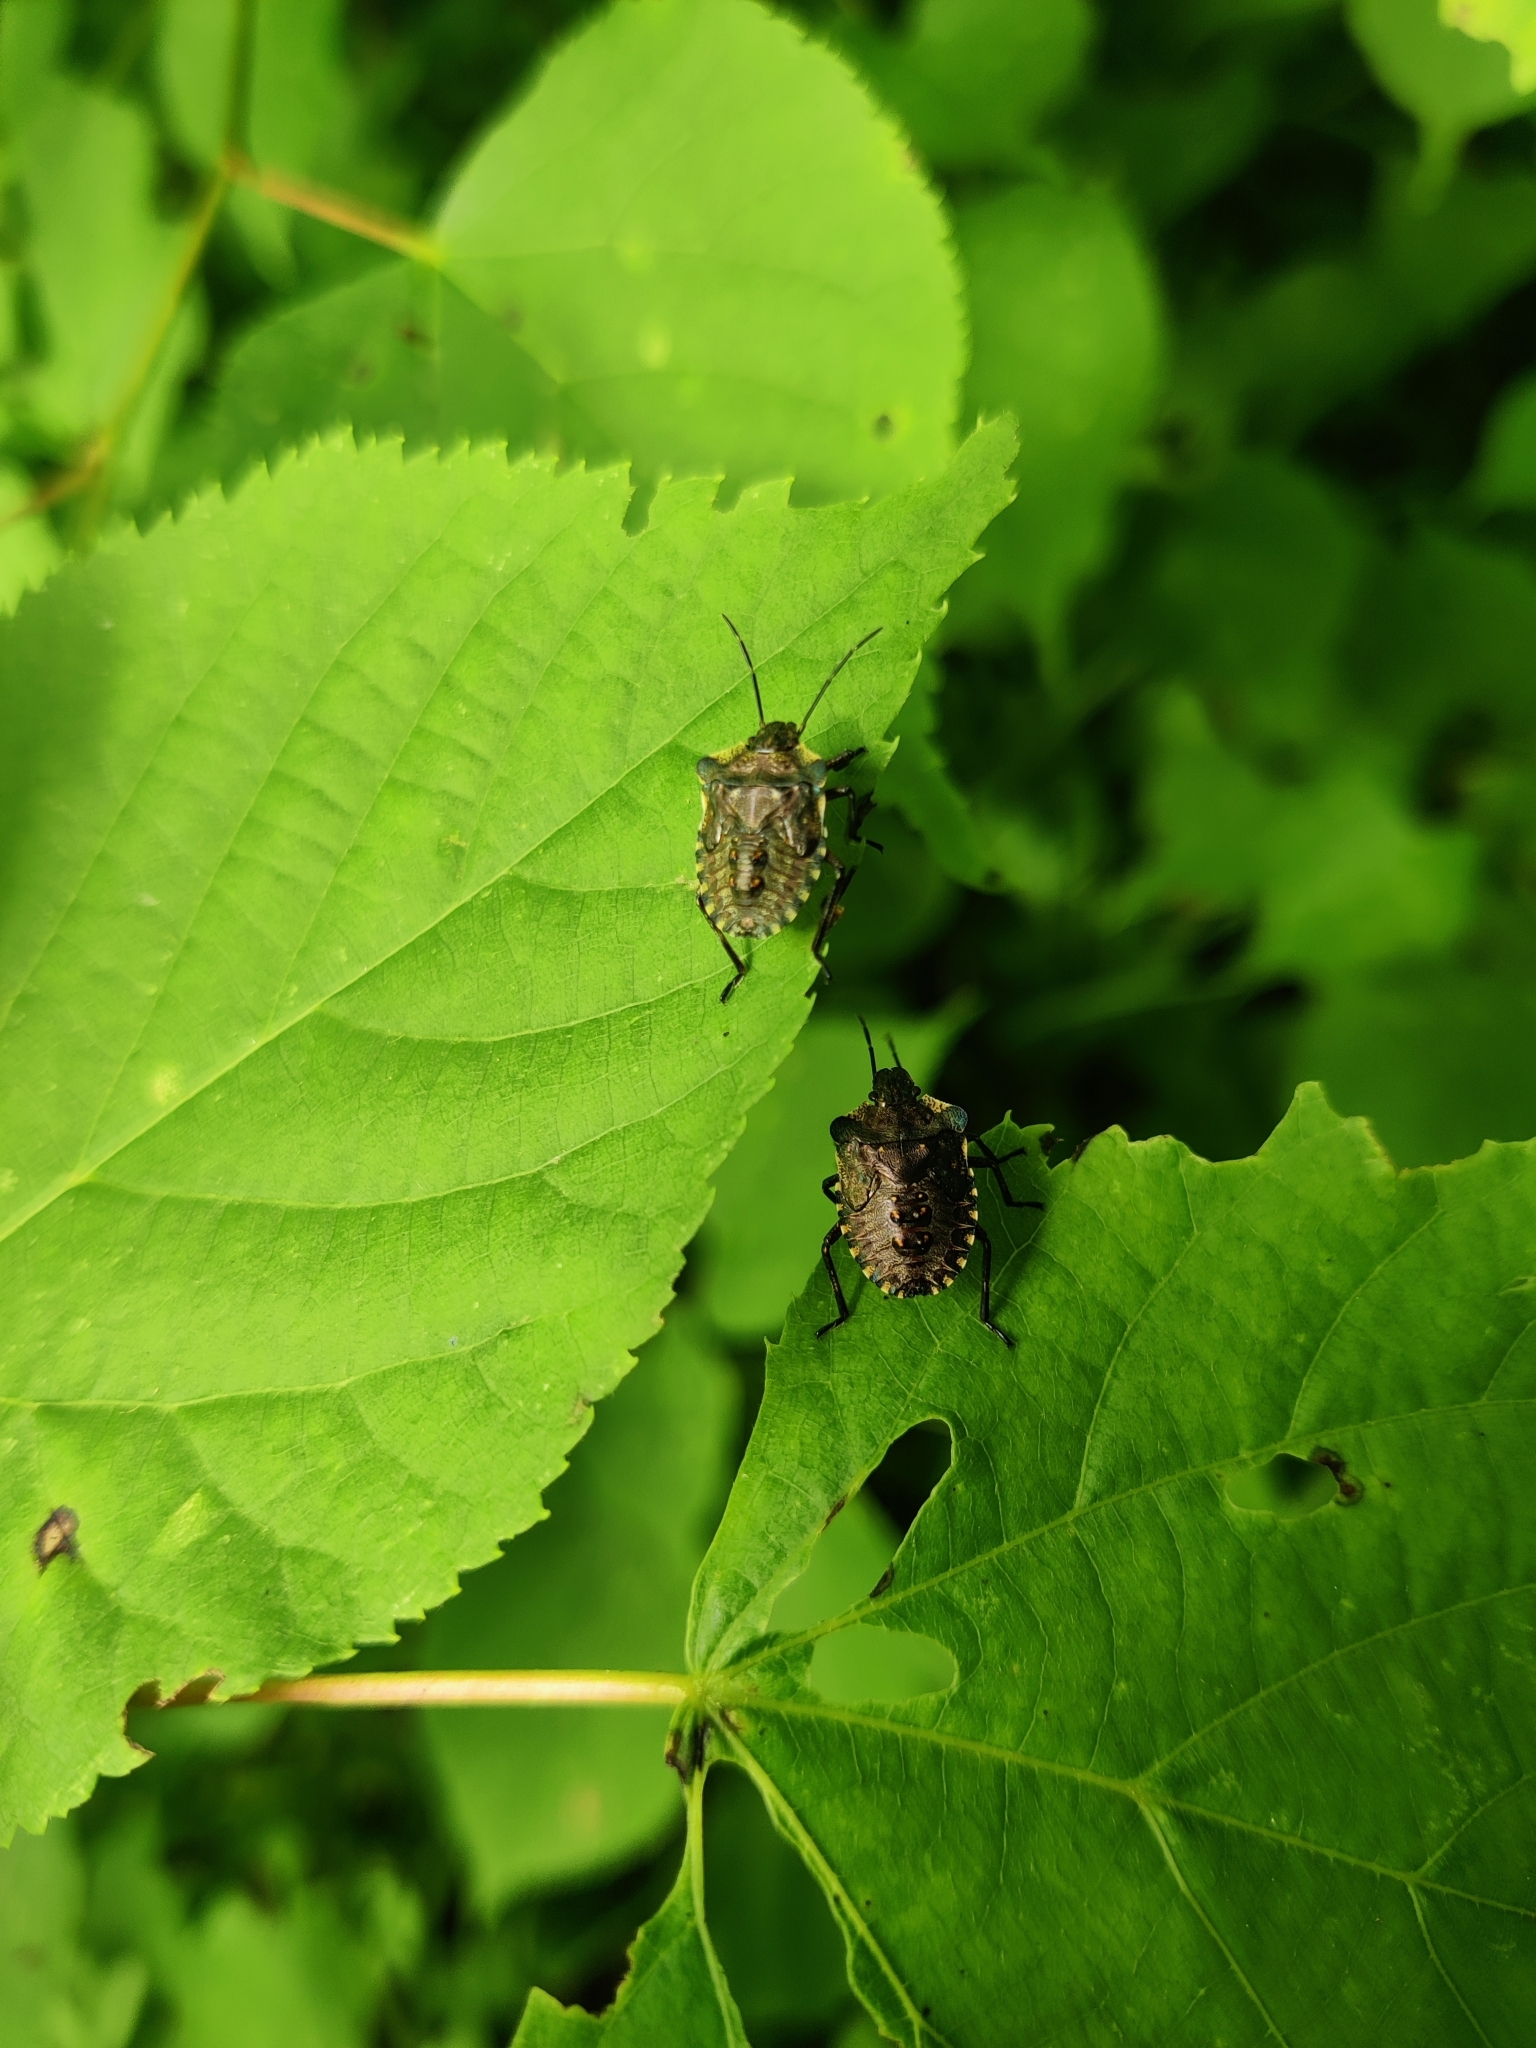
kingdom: Animalia
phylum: Arthropoda
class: Insecta
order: Hemiptera
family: Pentatomidae
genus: Pentatoma
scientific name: Pentatoma rufipes
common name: Forest bug
